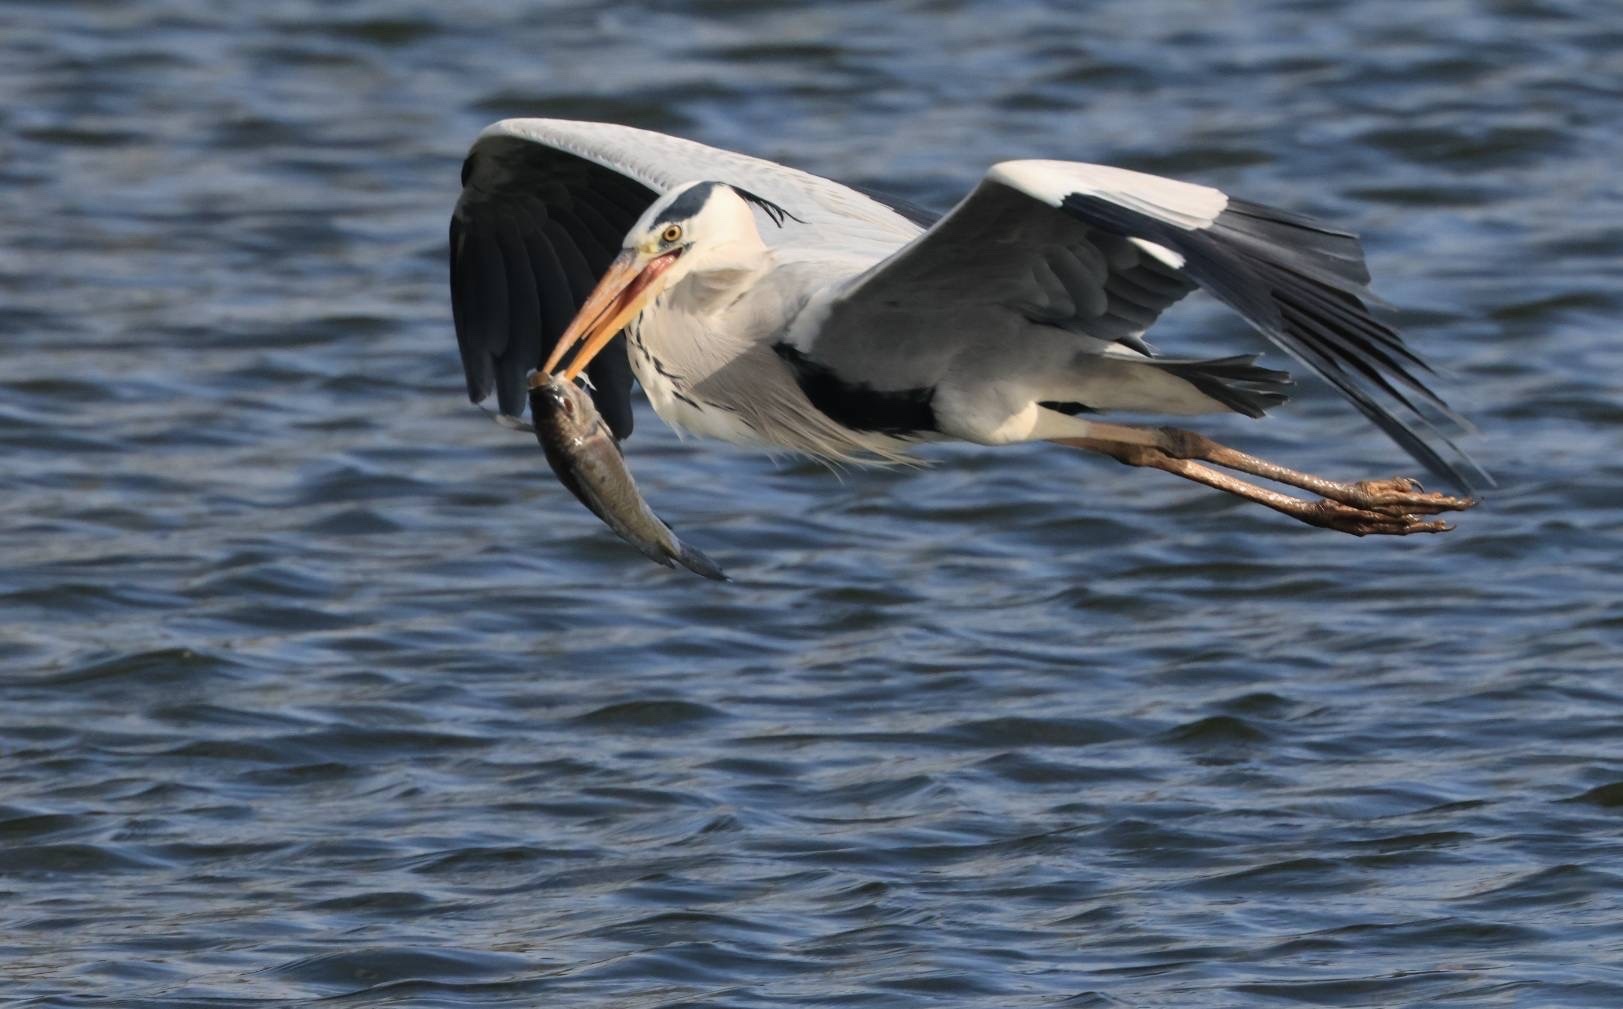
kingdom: Animalia
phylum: Chordata
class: Aves
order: Pelecaniformes
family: Ardeidae
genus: Ardea
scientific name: Ardea cinerea
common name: Grey heron
